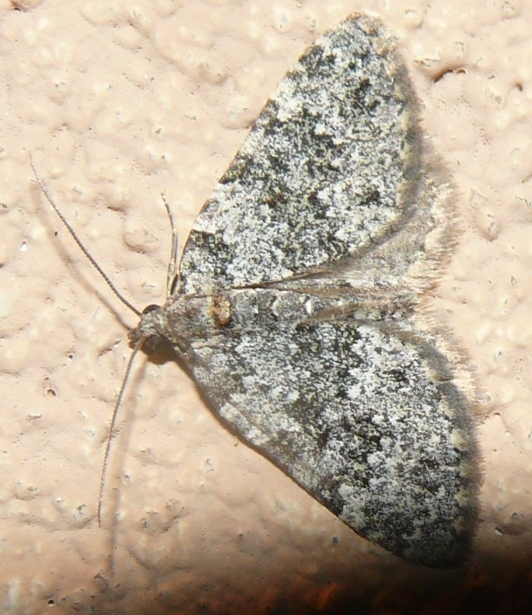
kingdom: Animalia
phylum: Arthropoda
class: Insecta
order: Lepidoptera
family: Geometridae
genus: Perizoma
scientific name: Perizoma petrogenes
